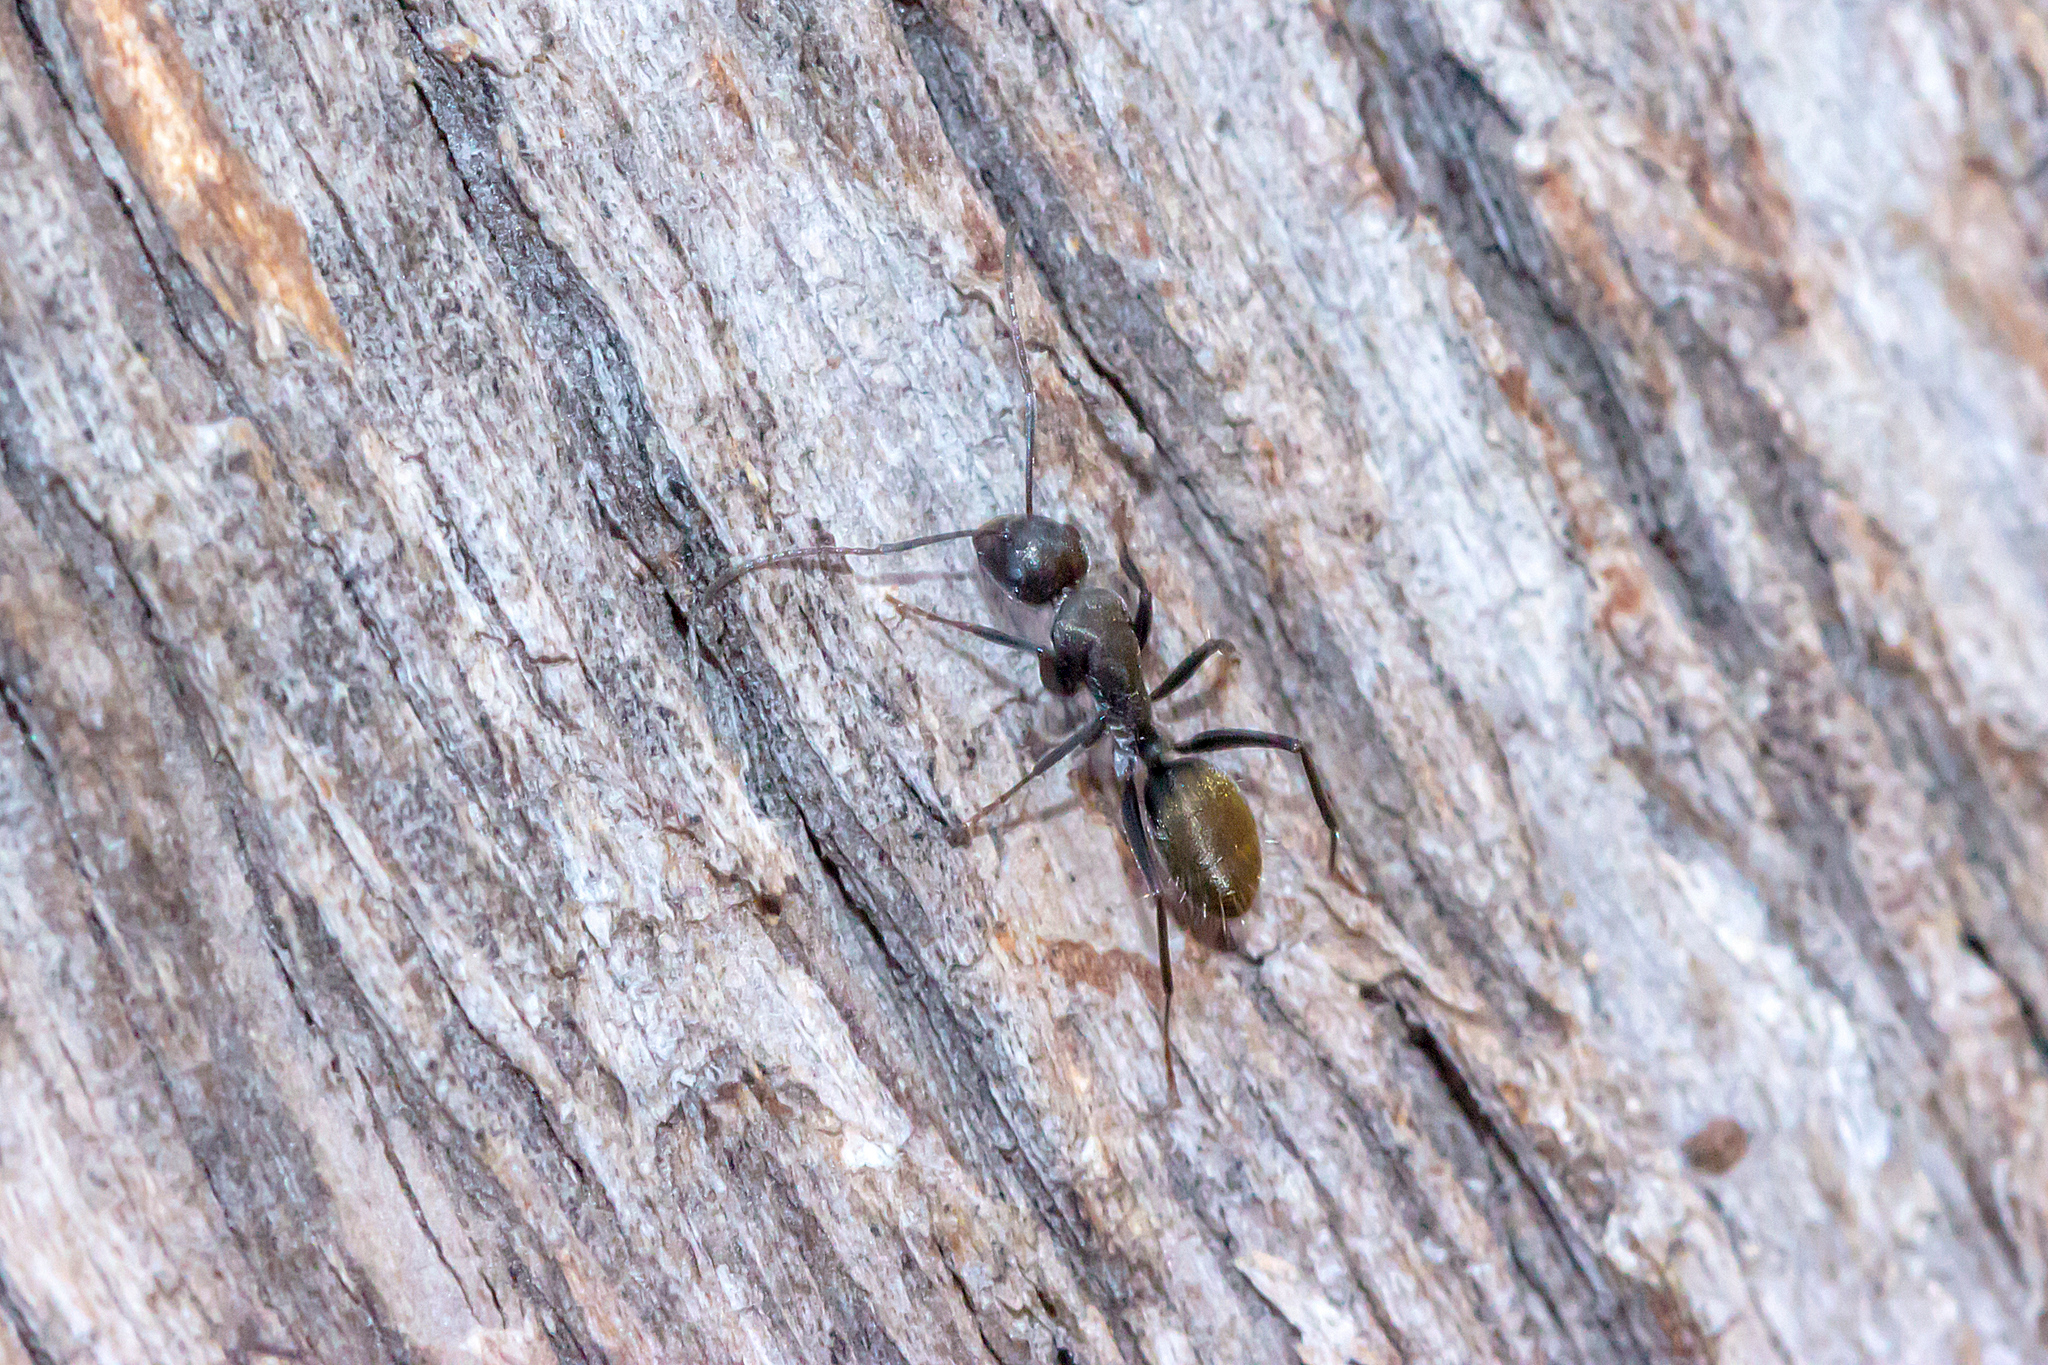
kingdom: Animalia
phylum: Arthropoda
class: Insecta
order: Hymenoptera
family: Formicidae
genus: Camponotus
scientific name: Camponotus aeneopilosus
